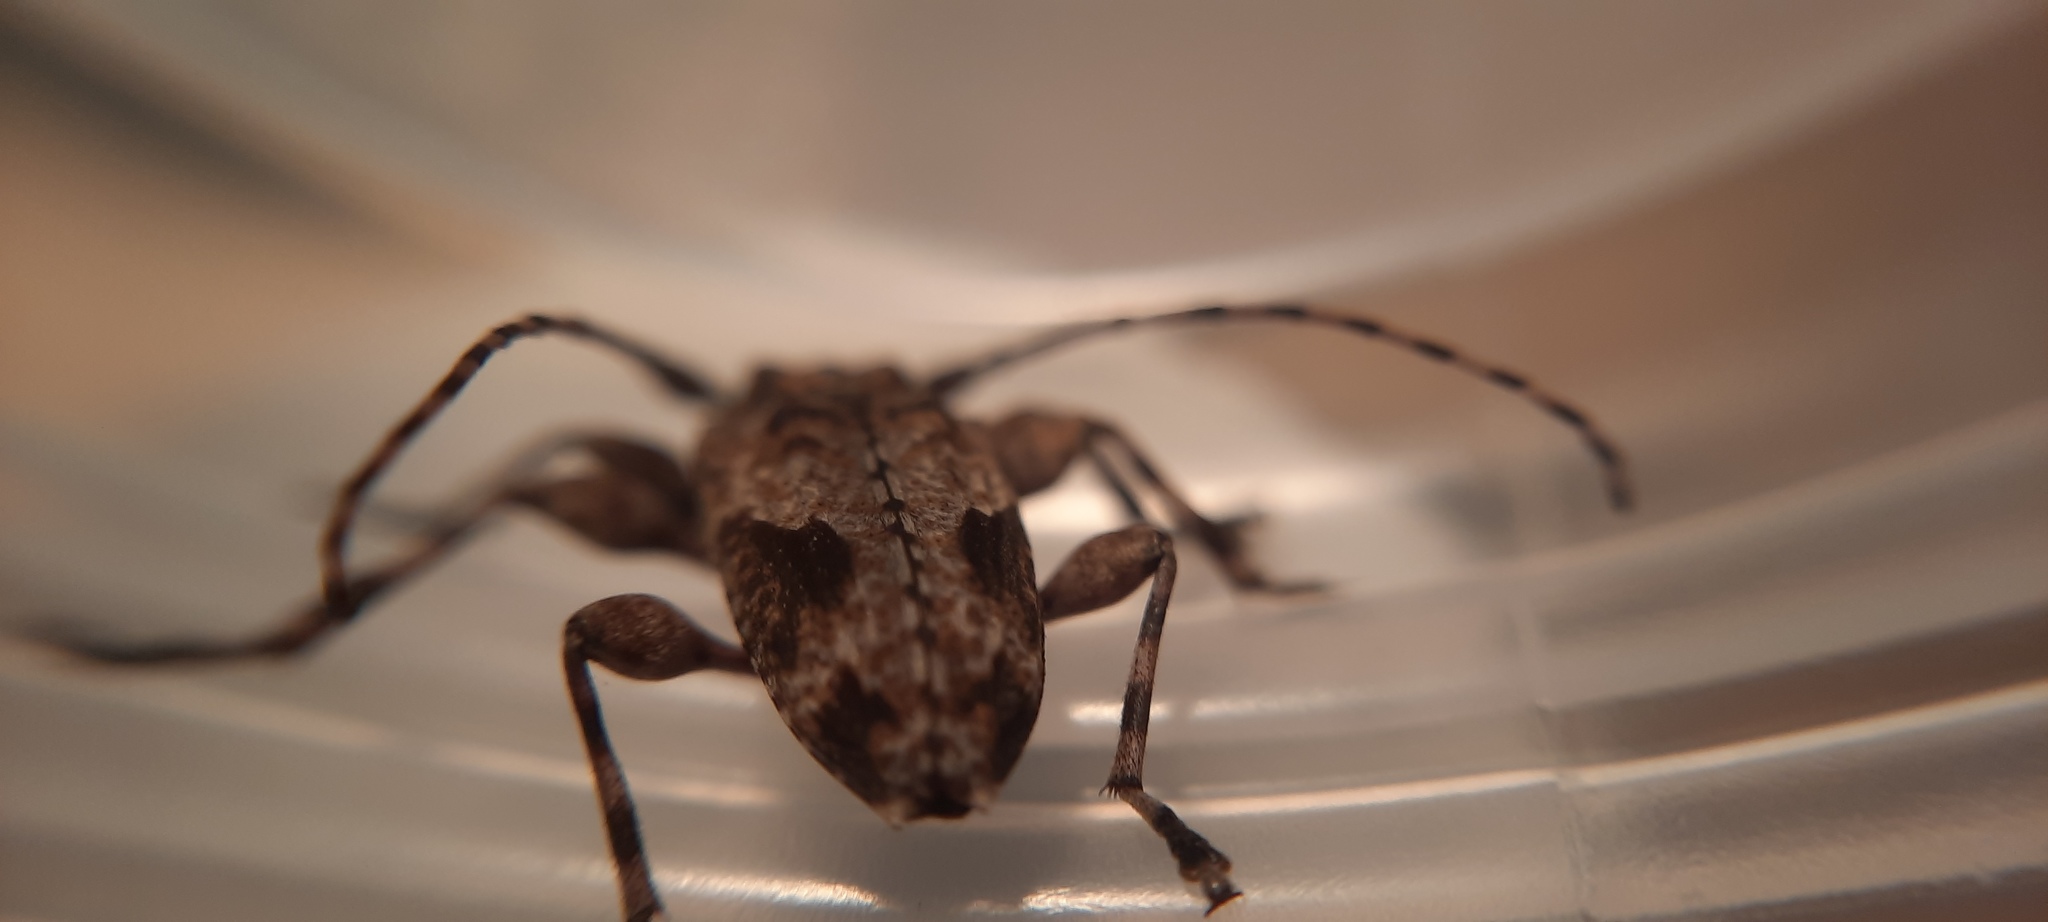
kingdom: Animalia
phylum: Arthropoda
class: Insecta
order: Coleoptera
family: Cerambycidae
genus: Psapharochrus
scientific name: Psapharochrus jaspideus
